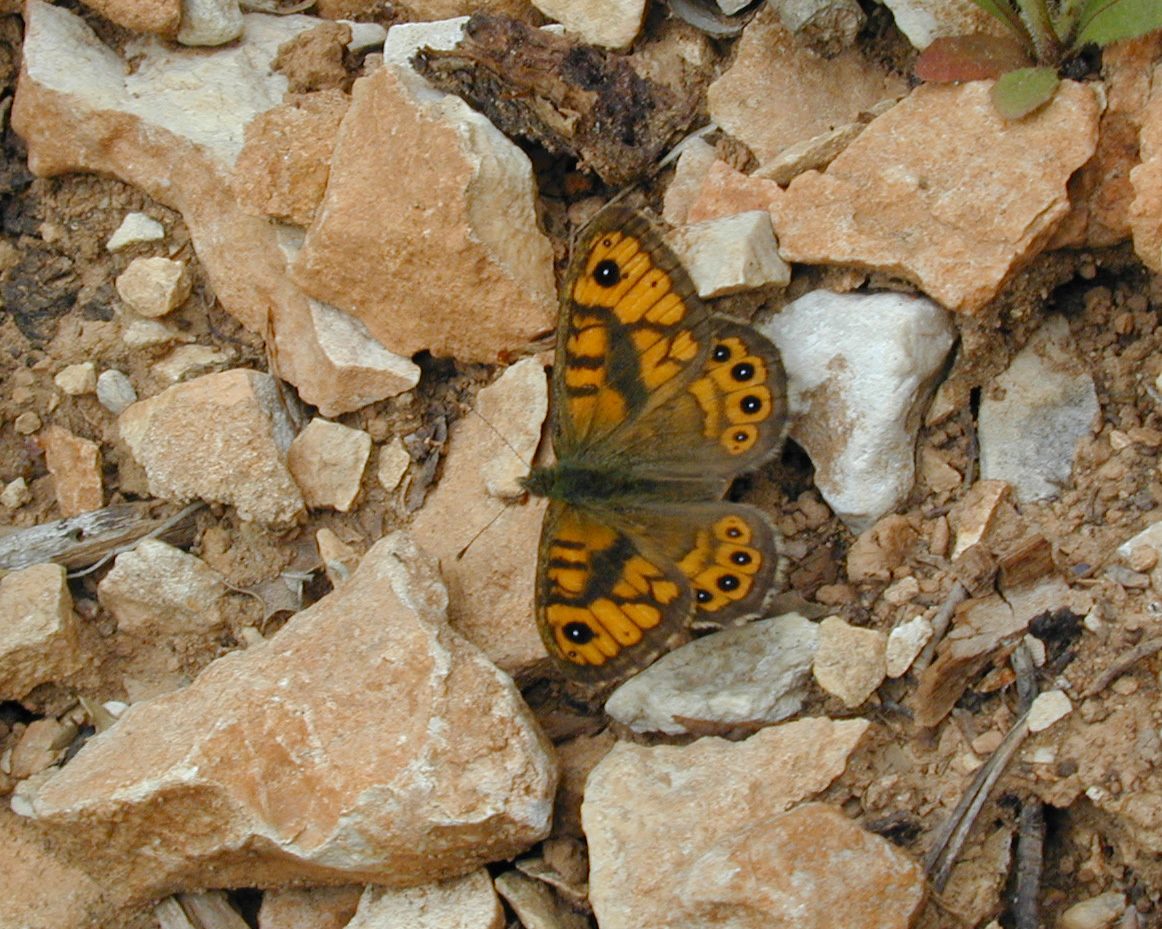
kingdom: Animalia
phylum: Arthropoda
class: Insecta
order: Lepidoptera
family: Nymphalidae
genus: Pararge
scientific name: Pararge Lasiommata megera
